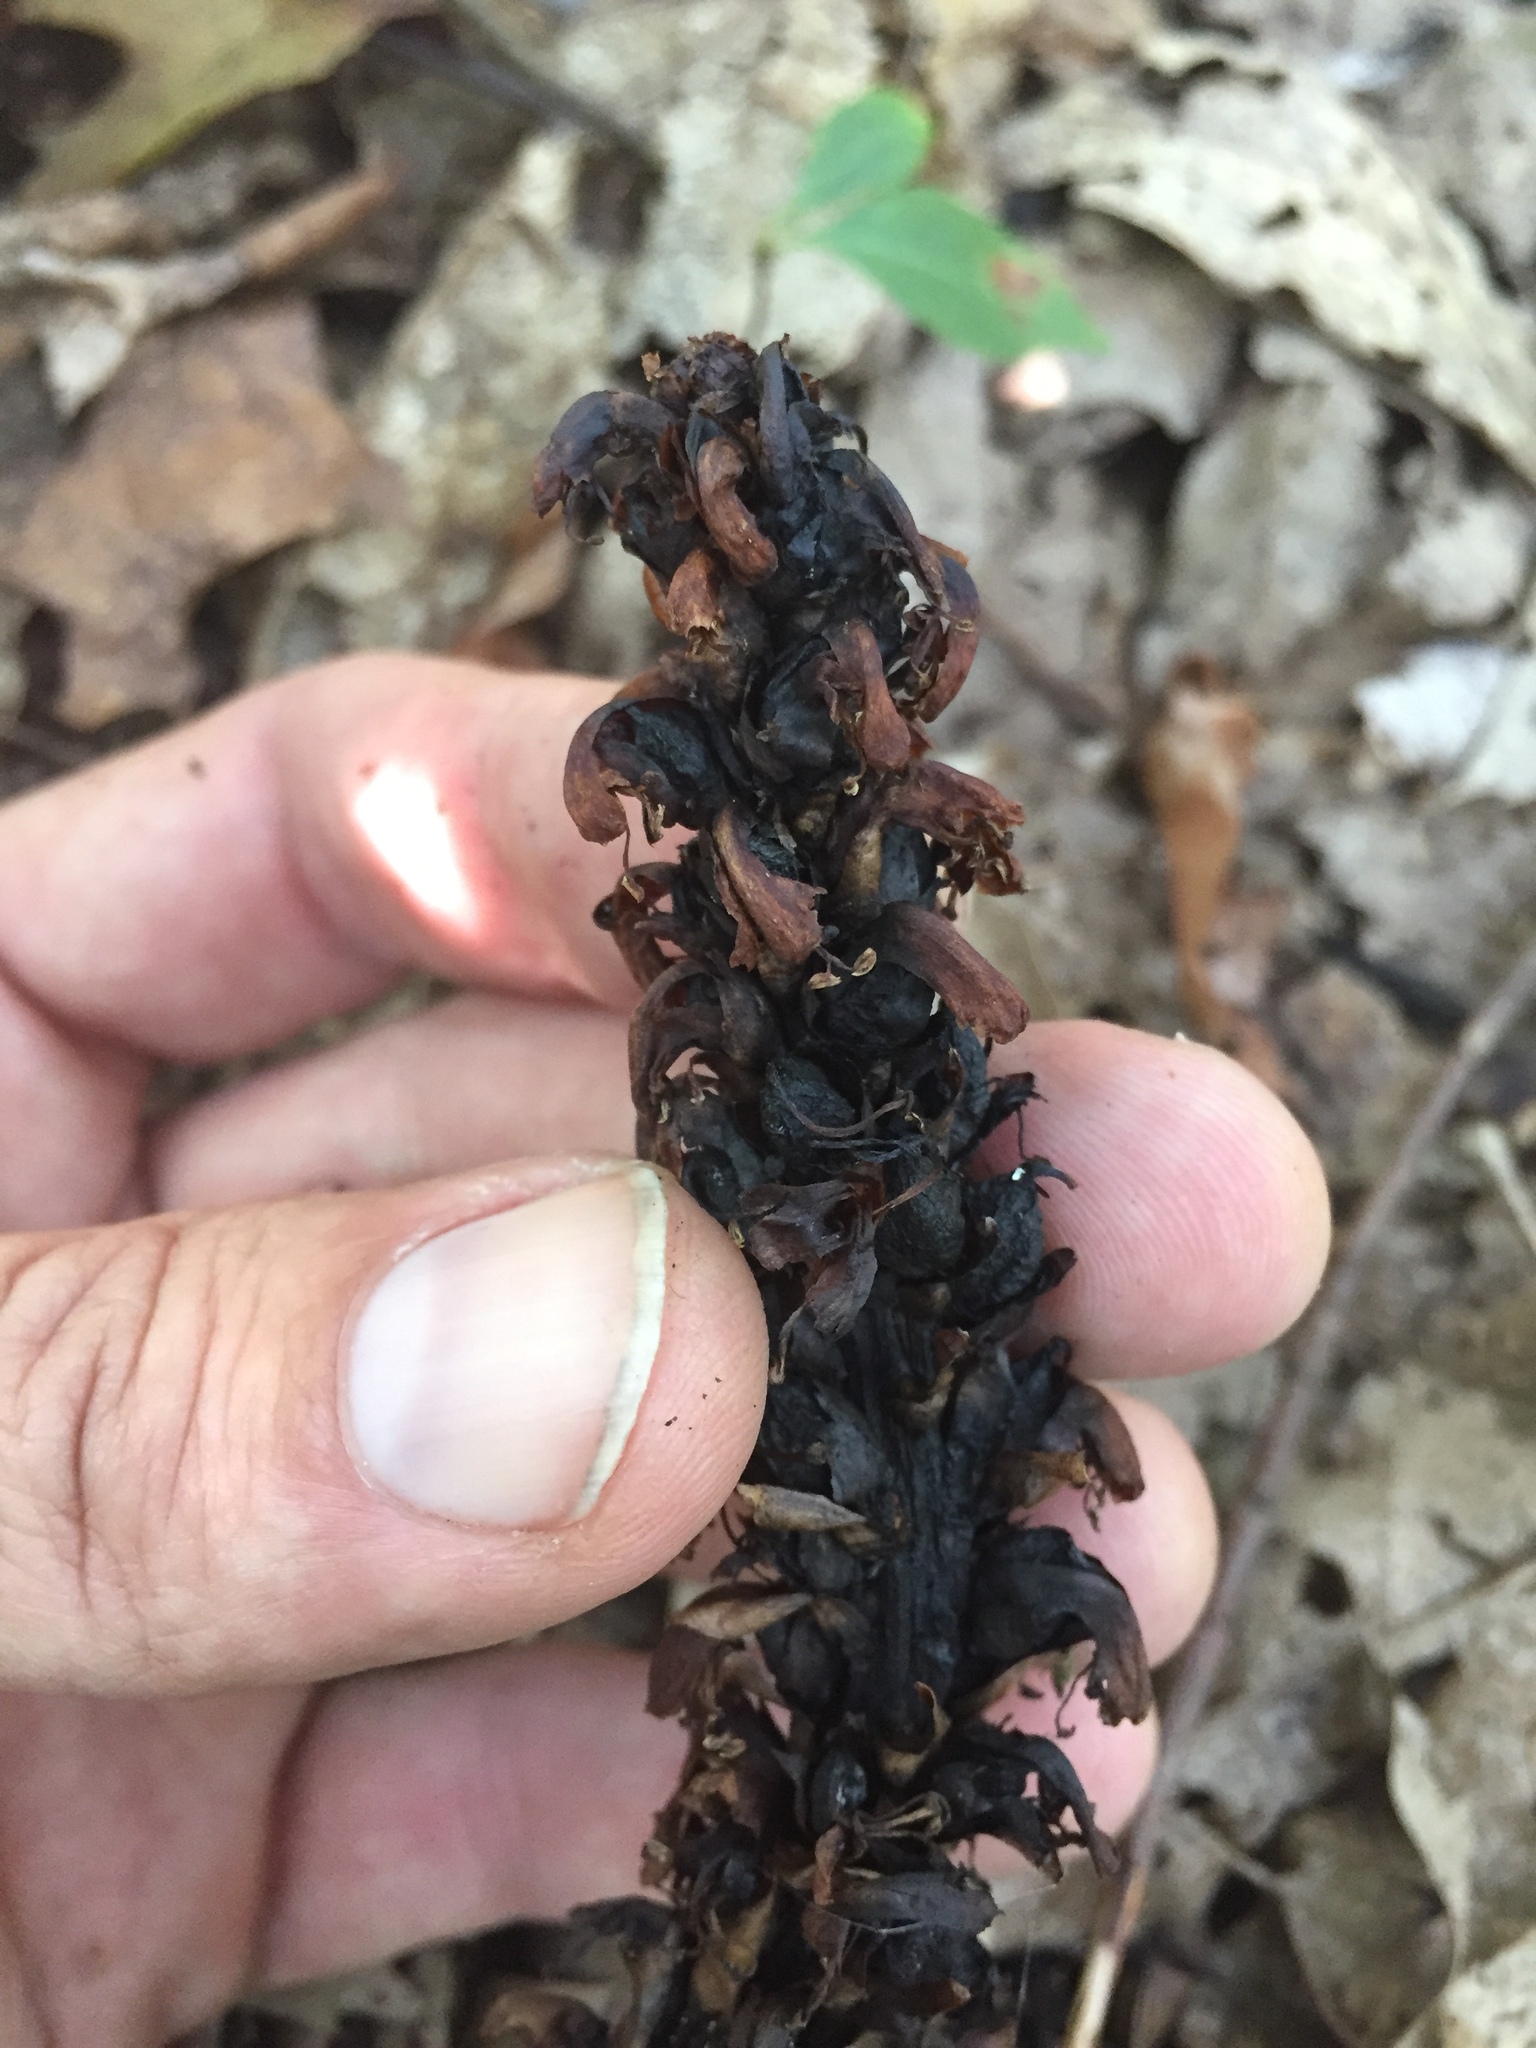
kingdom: Plantae
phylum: Tracheophyta
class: Magnoliopsida
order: Lamiales
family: Orobanchaceae
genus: Conopholis
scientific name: Conopholis americana
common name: American cancer-root
